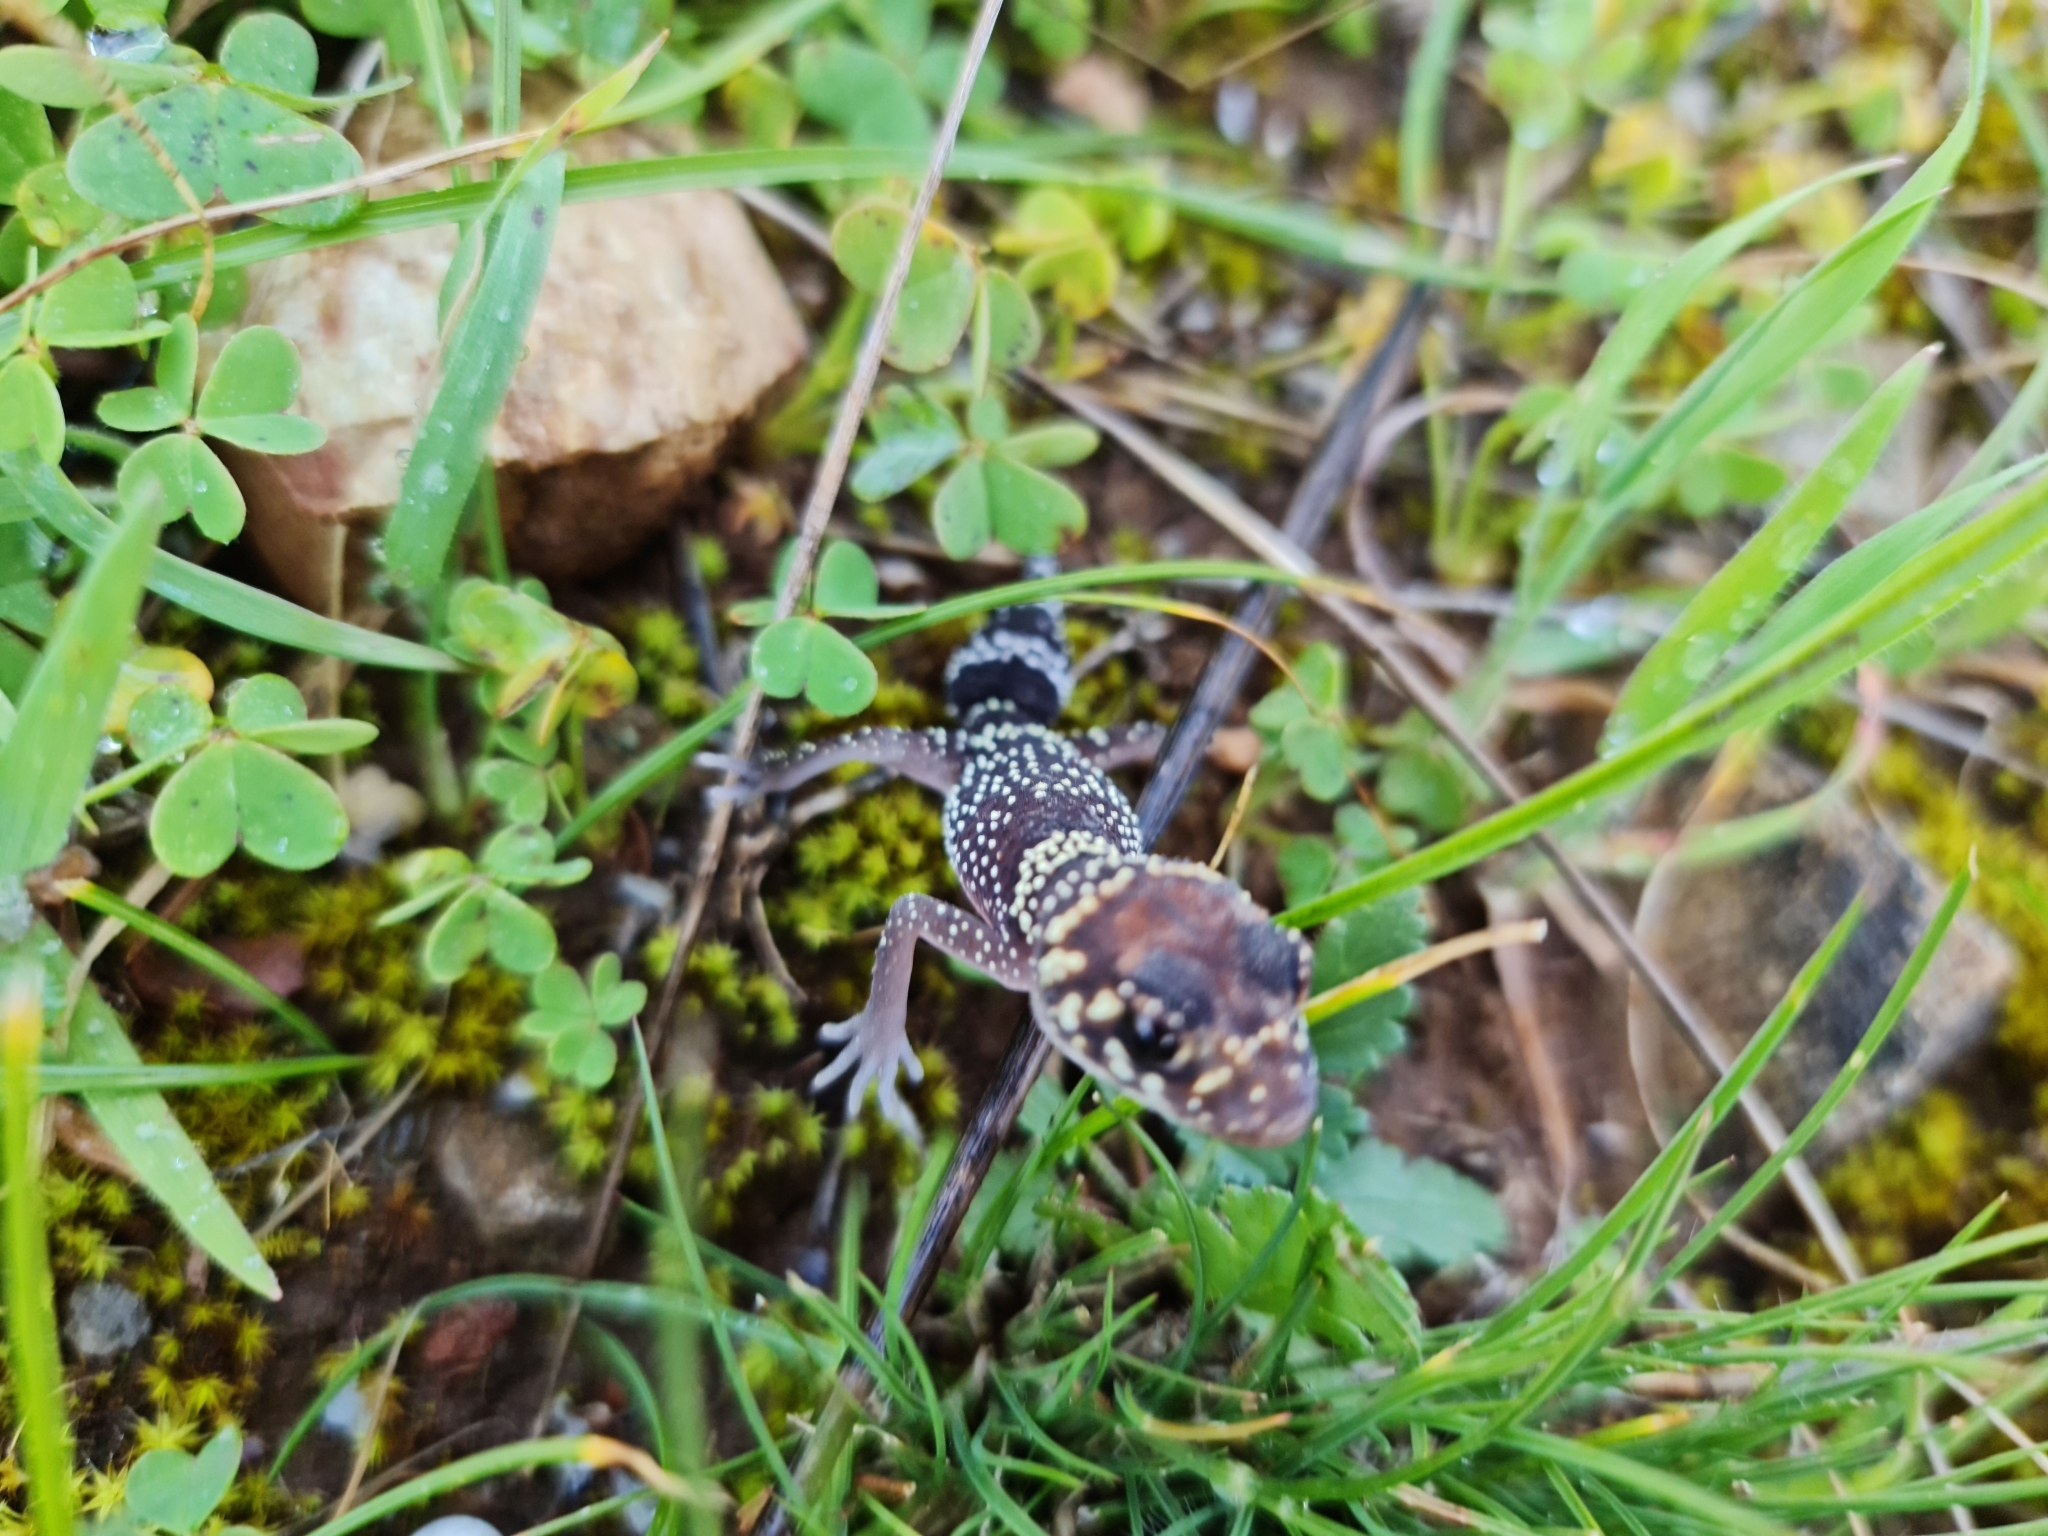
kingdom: Animalia
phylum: Chordata
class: Squamata
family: Carphodactylidae
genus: Underwoodisaurus
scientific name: Underwoodisaurus milii
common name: Barking gecko
